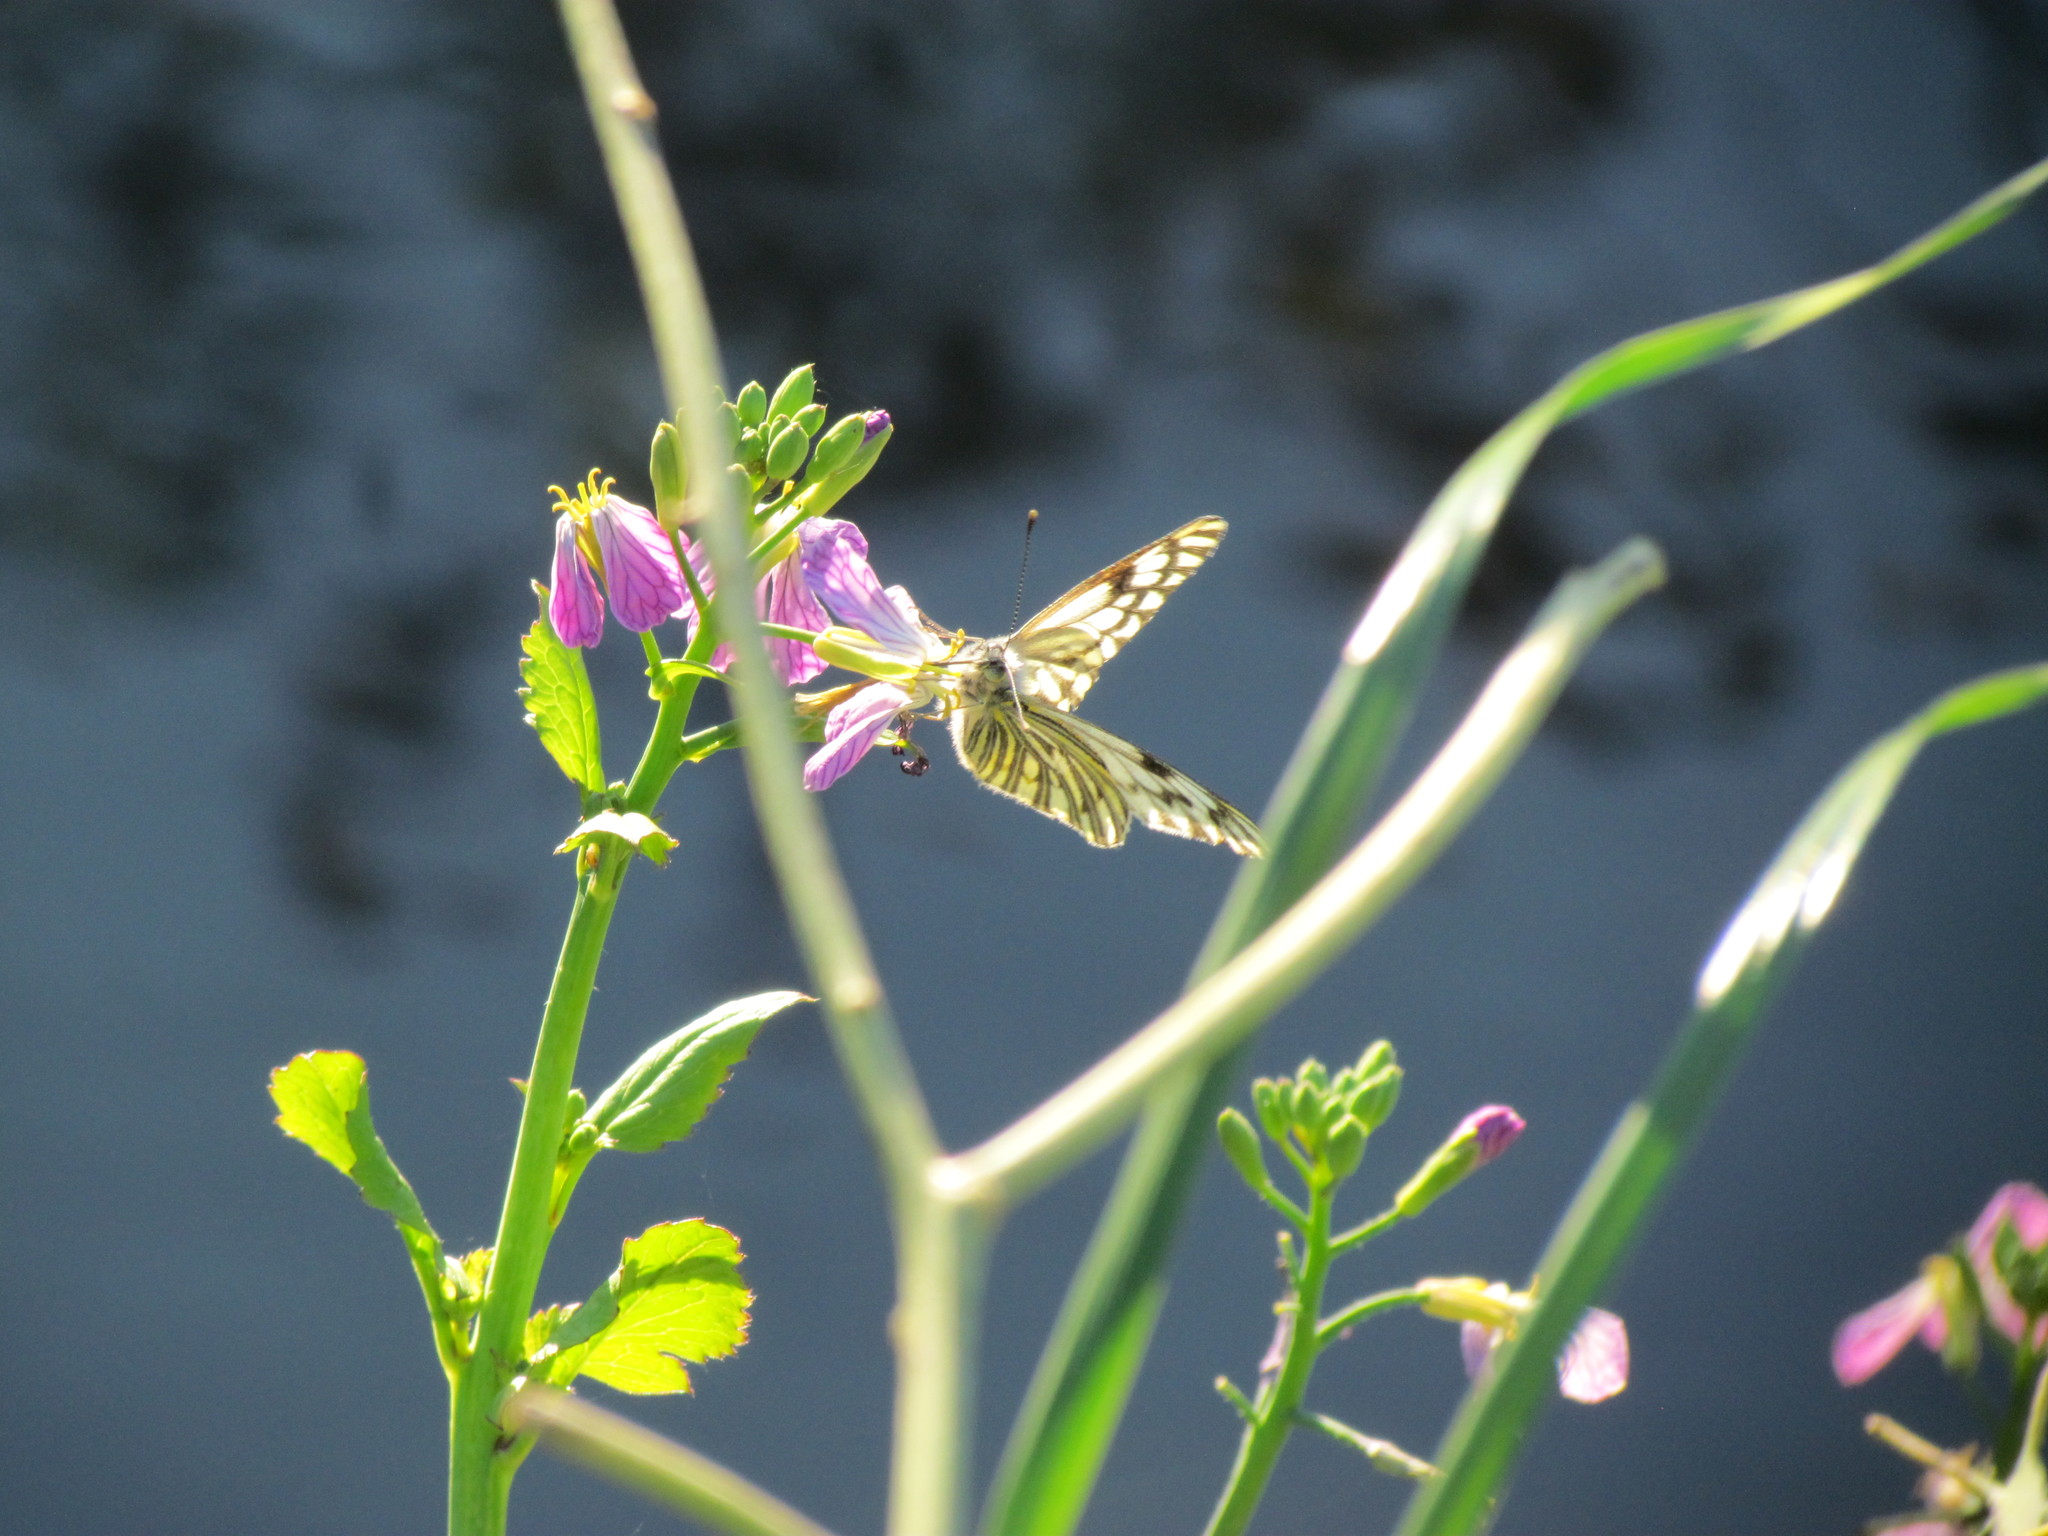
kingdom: Animalia
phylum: Arthropoda
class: Insecta
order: Lepidoptera
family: Pieridae
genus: Tatochila
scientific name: Tatochila mercedis
